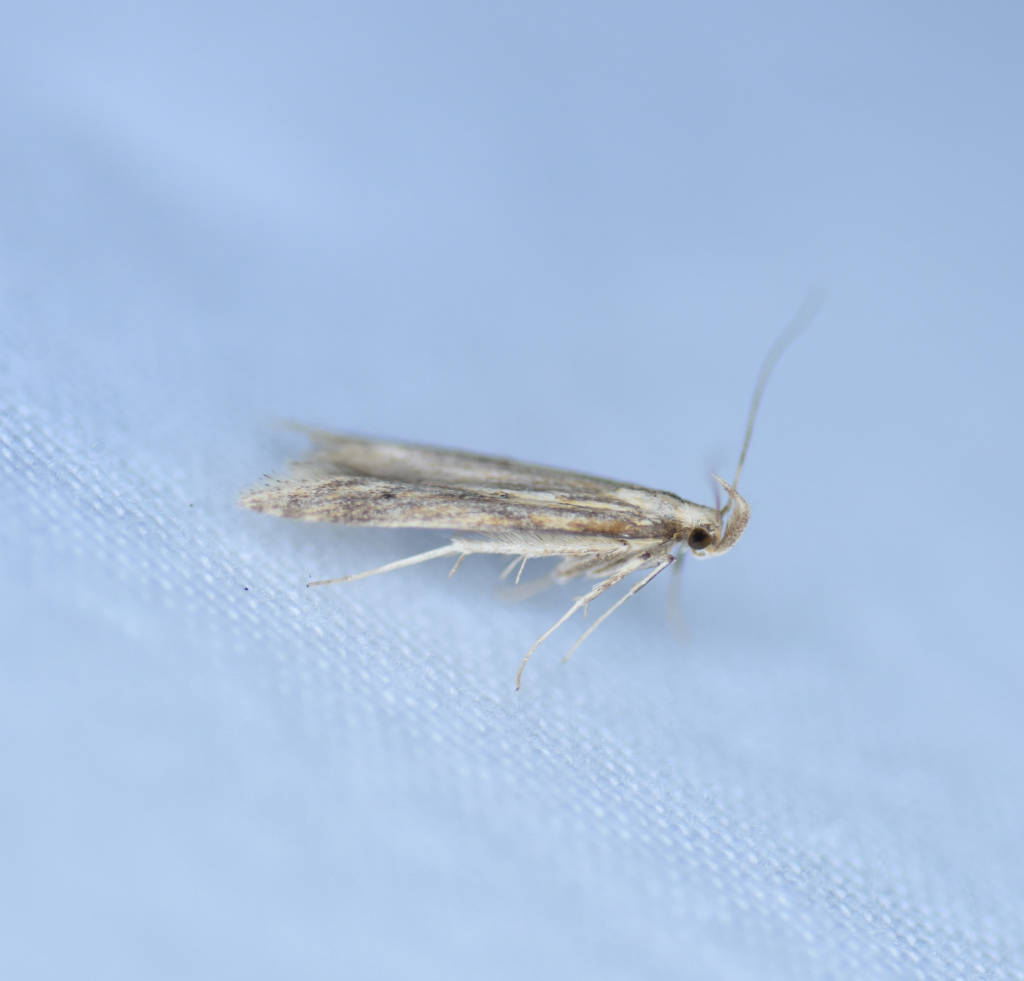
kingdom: Animalia
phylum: Arthropoda
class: Insecta
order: Lepidoptera
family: Gelechiidae
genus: Metzneria
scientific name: Metzneria lappella
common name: Burdock neb
